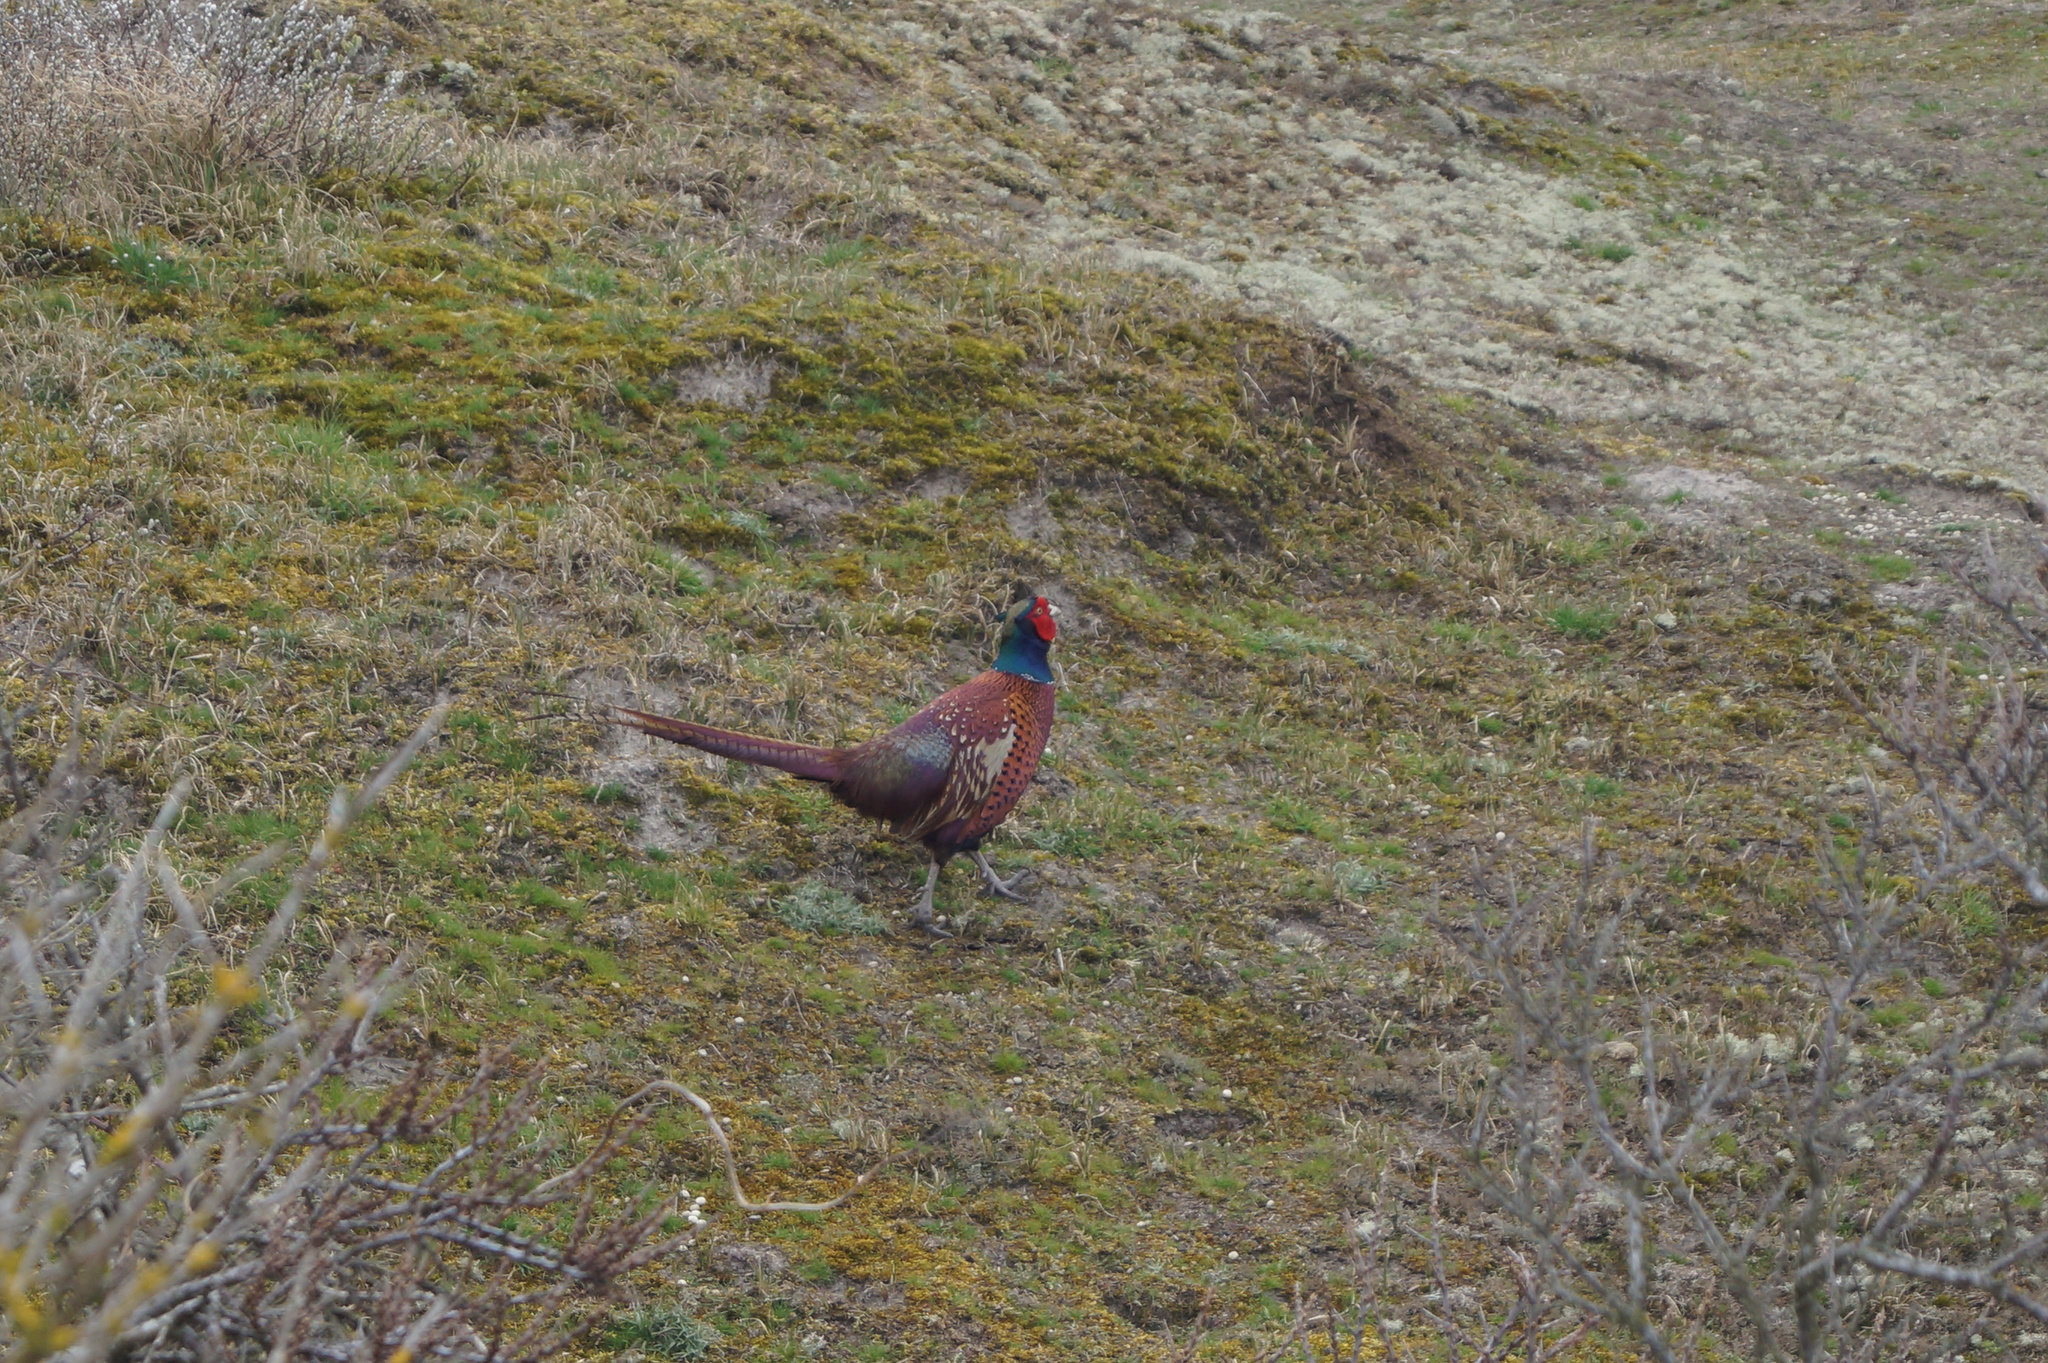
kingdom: Animalia
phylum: Chordata
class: Aves
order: Galliformes
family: Phasianidae
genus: Phasianus
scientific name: Phasianus colchicus
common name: Common pheasant
